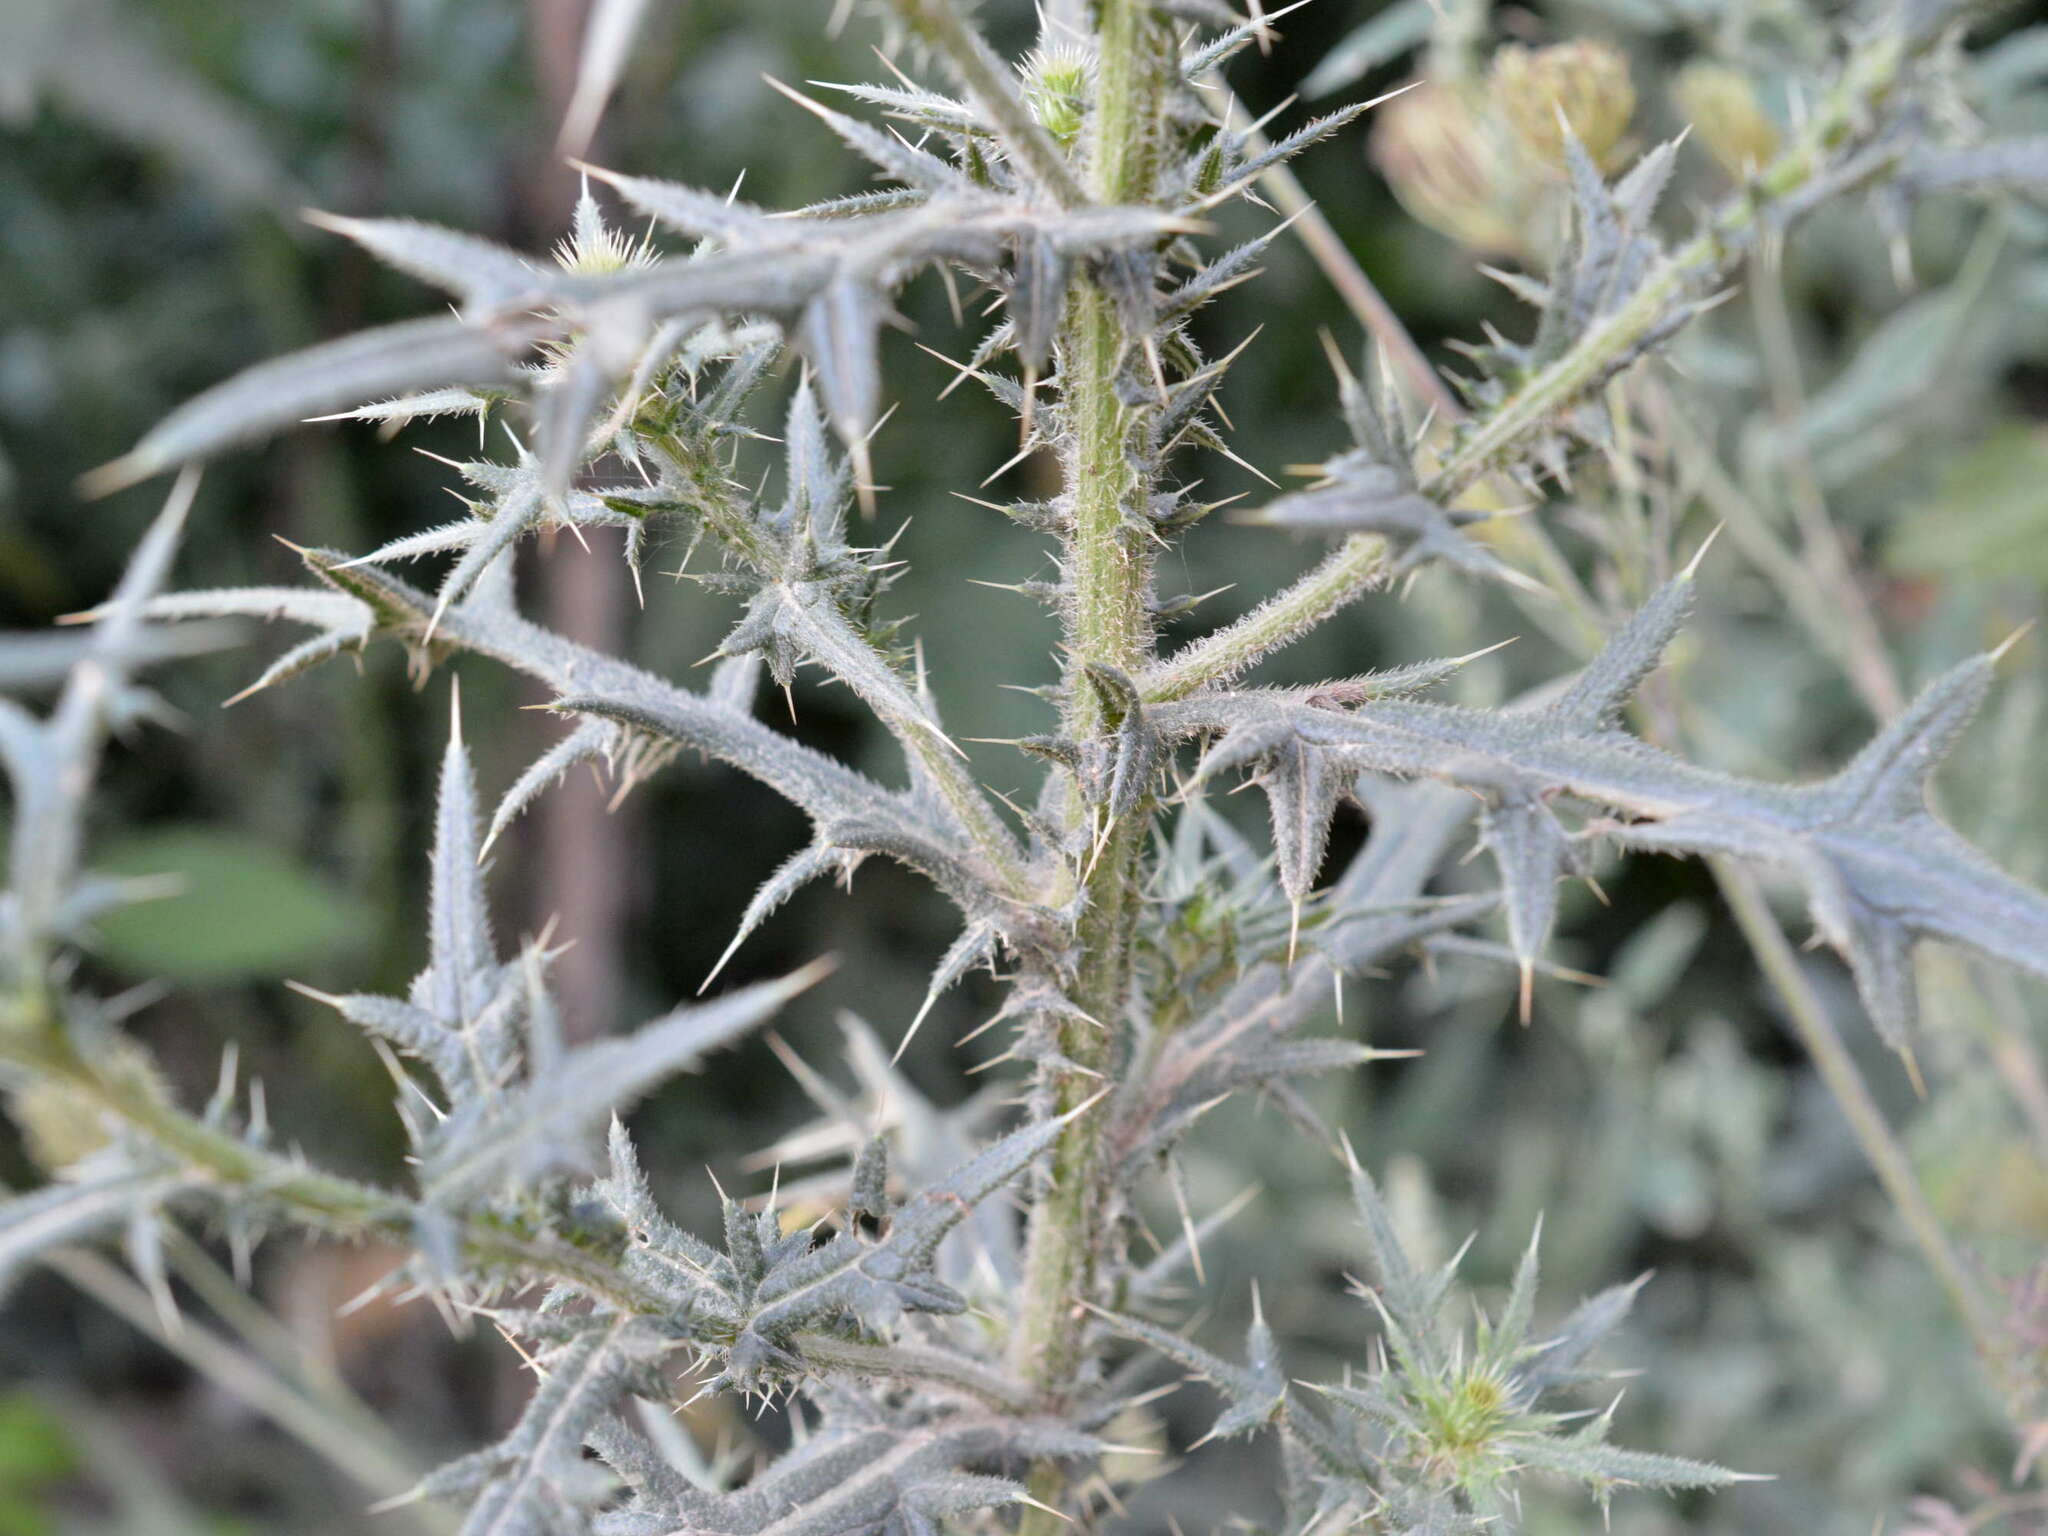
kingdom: Plantae
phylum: Tracheophyta
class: Magnoliopsida
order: Asterales
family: Asteraceae
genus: Cirsium
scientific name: Cirsium vulgare
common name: Bull thistle
